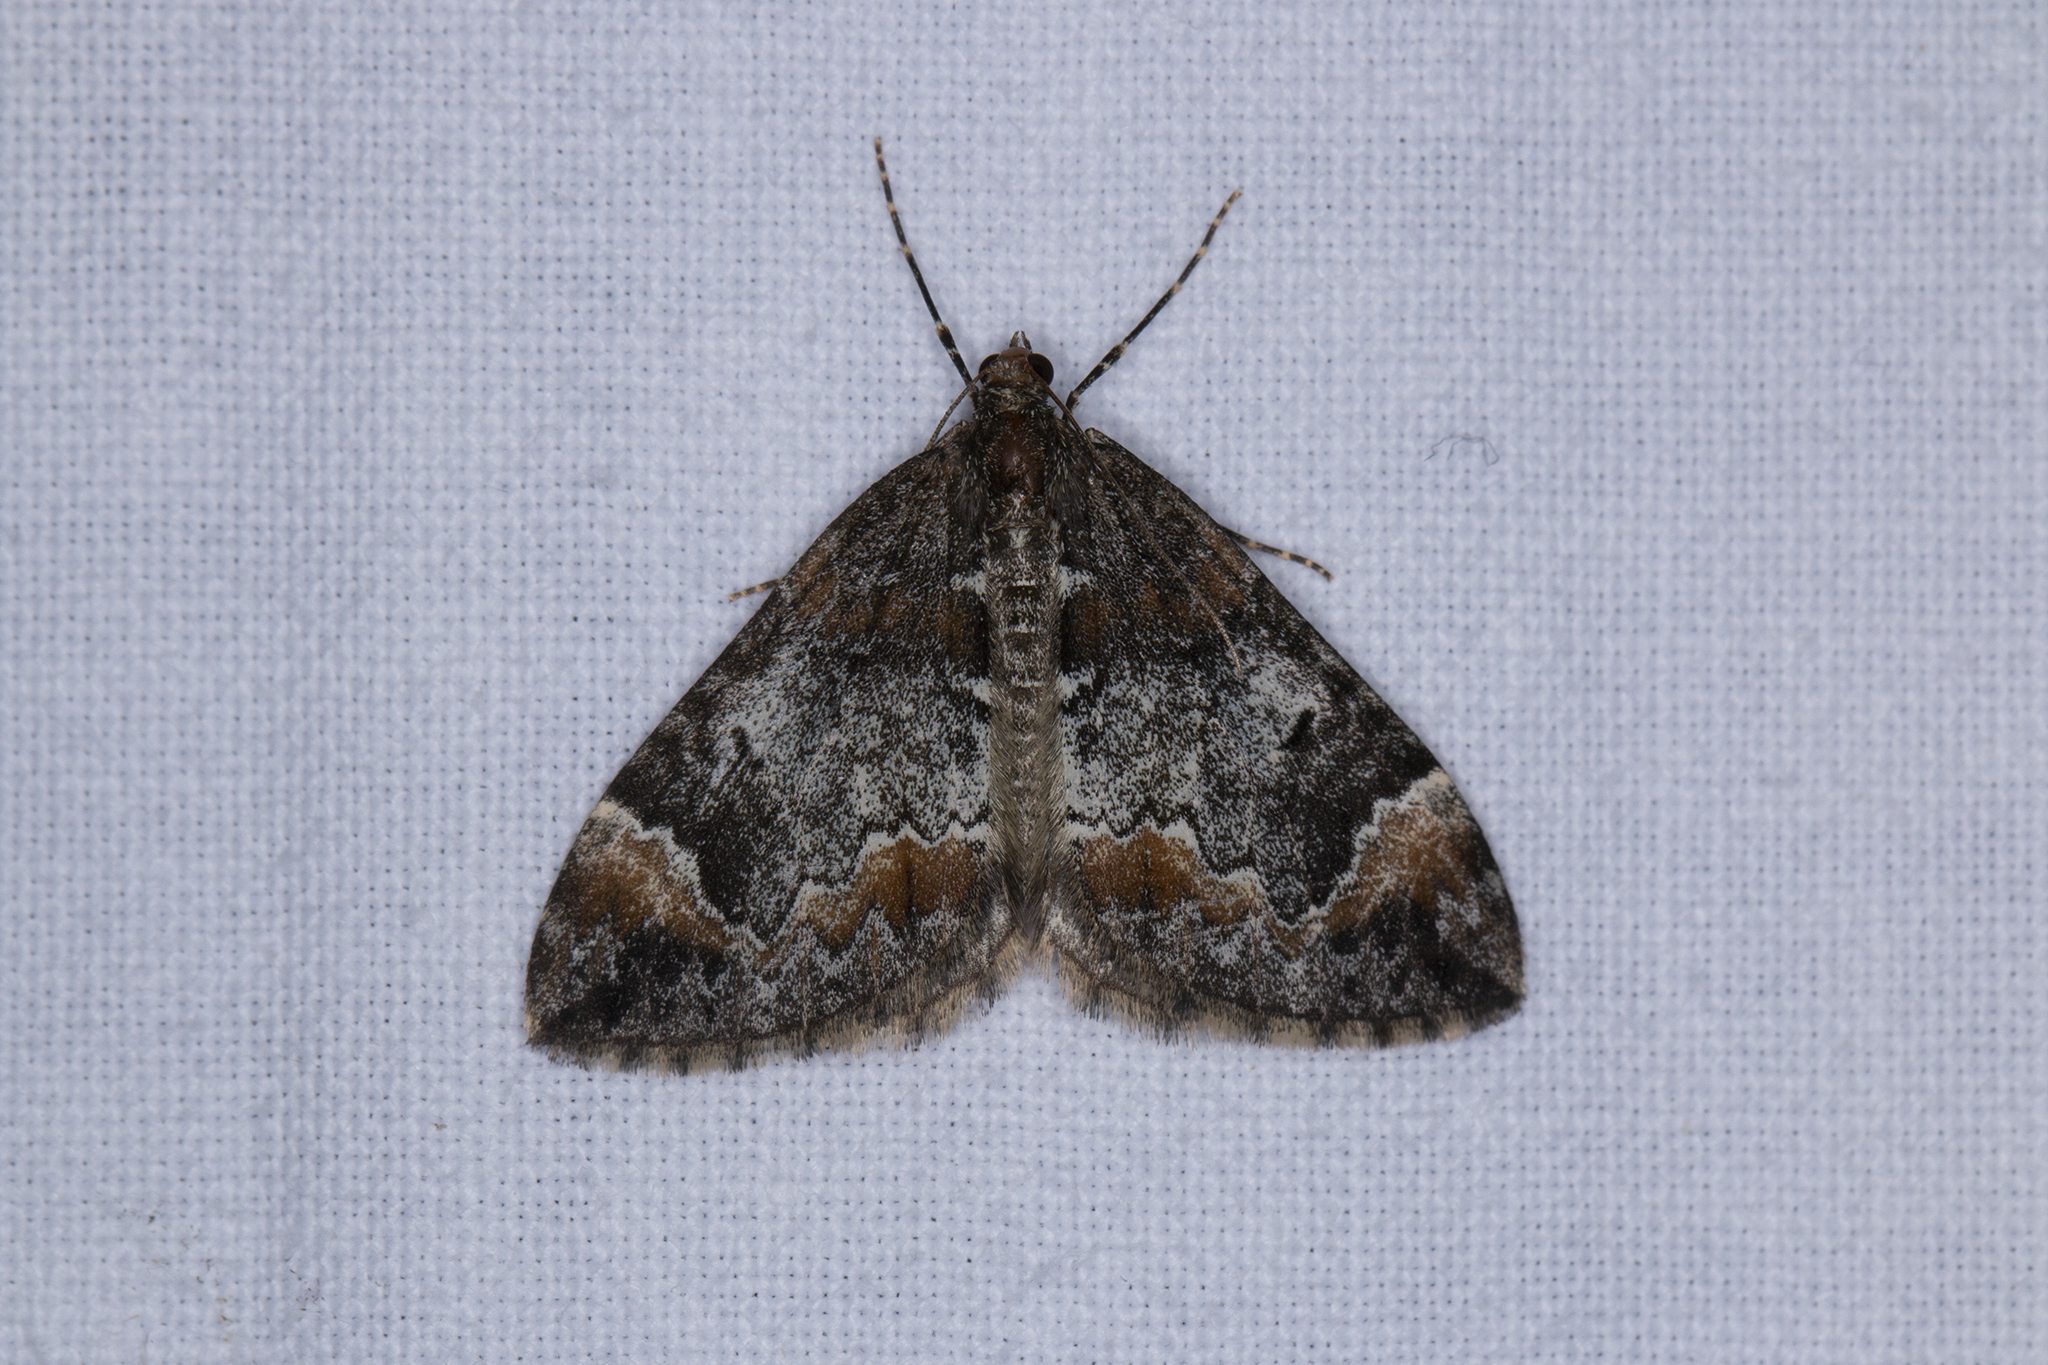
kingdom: Animalia
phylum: Arthropoda
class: Insecta
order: Lepidoptera
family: Geometridae
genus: Dysstroma
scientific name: Dysstroma truncata
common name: Common marbled carpet
